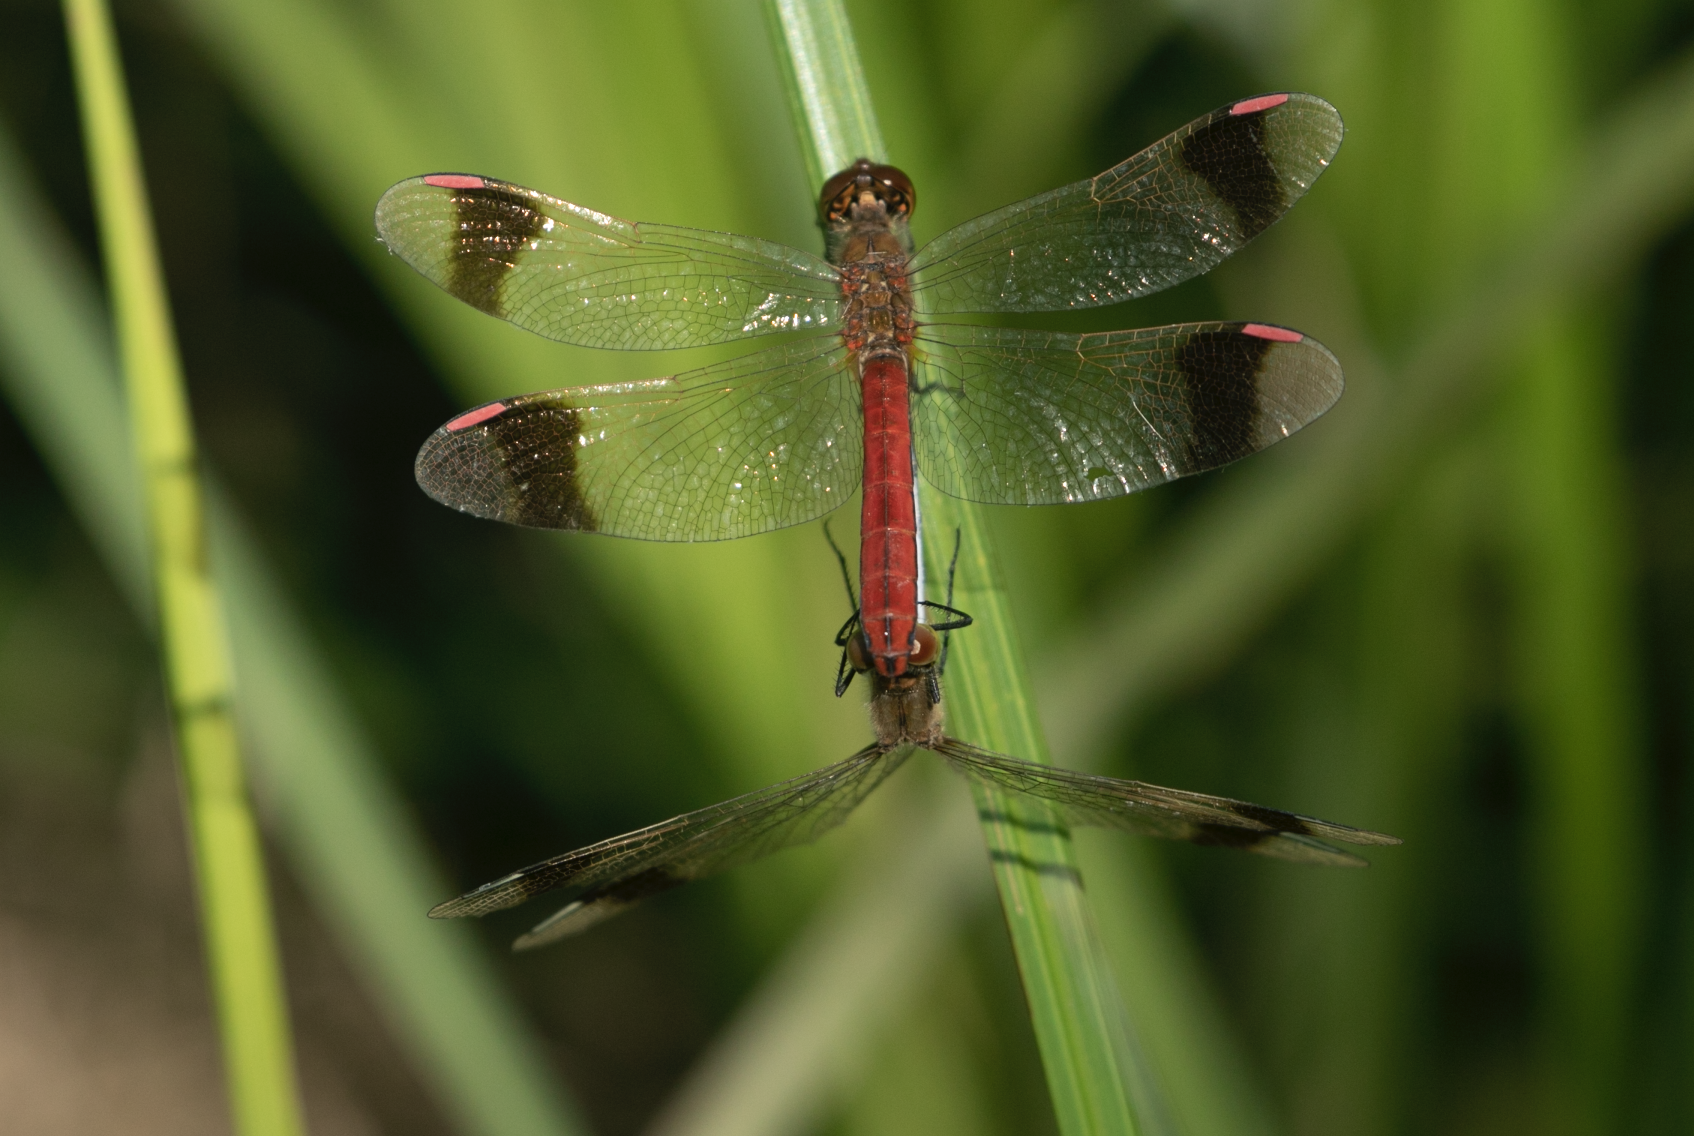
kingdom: Animalia
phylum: Arthropoda
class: Insecta
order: Odonata
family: Libellulidae
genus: Sympetrum
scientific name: Sympetrum pedemontanum
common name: Banded darter
